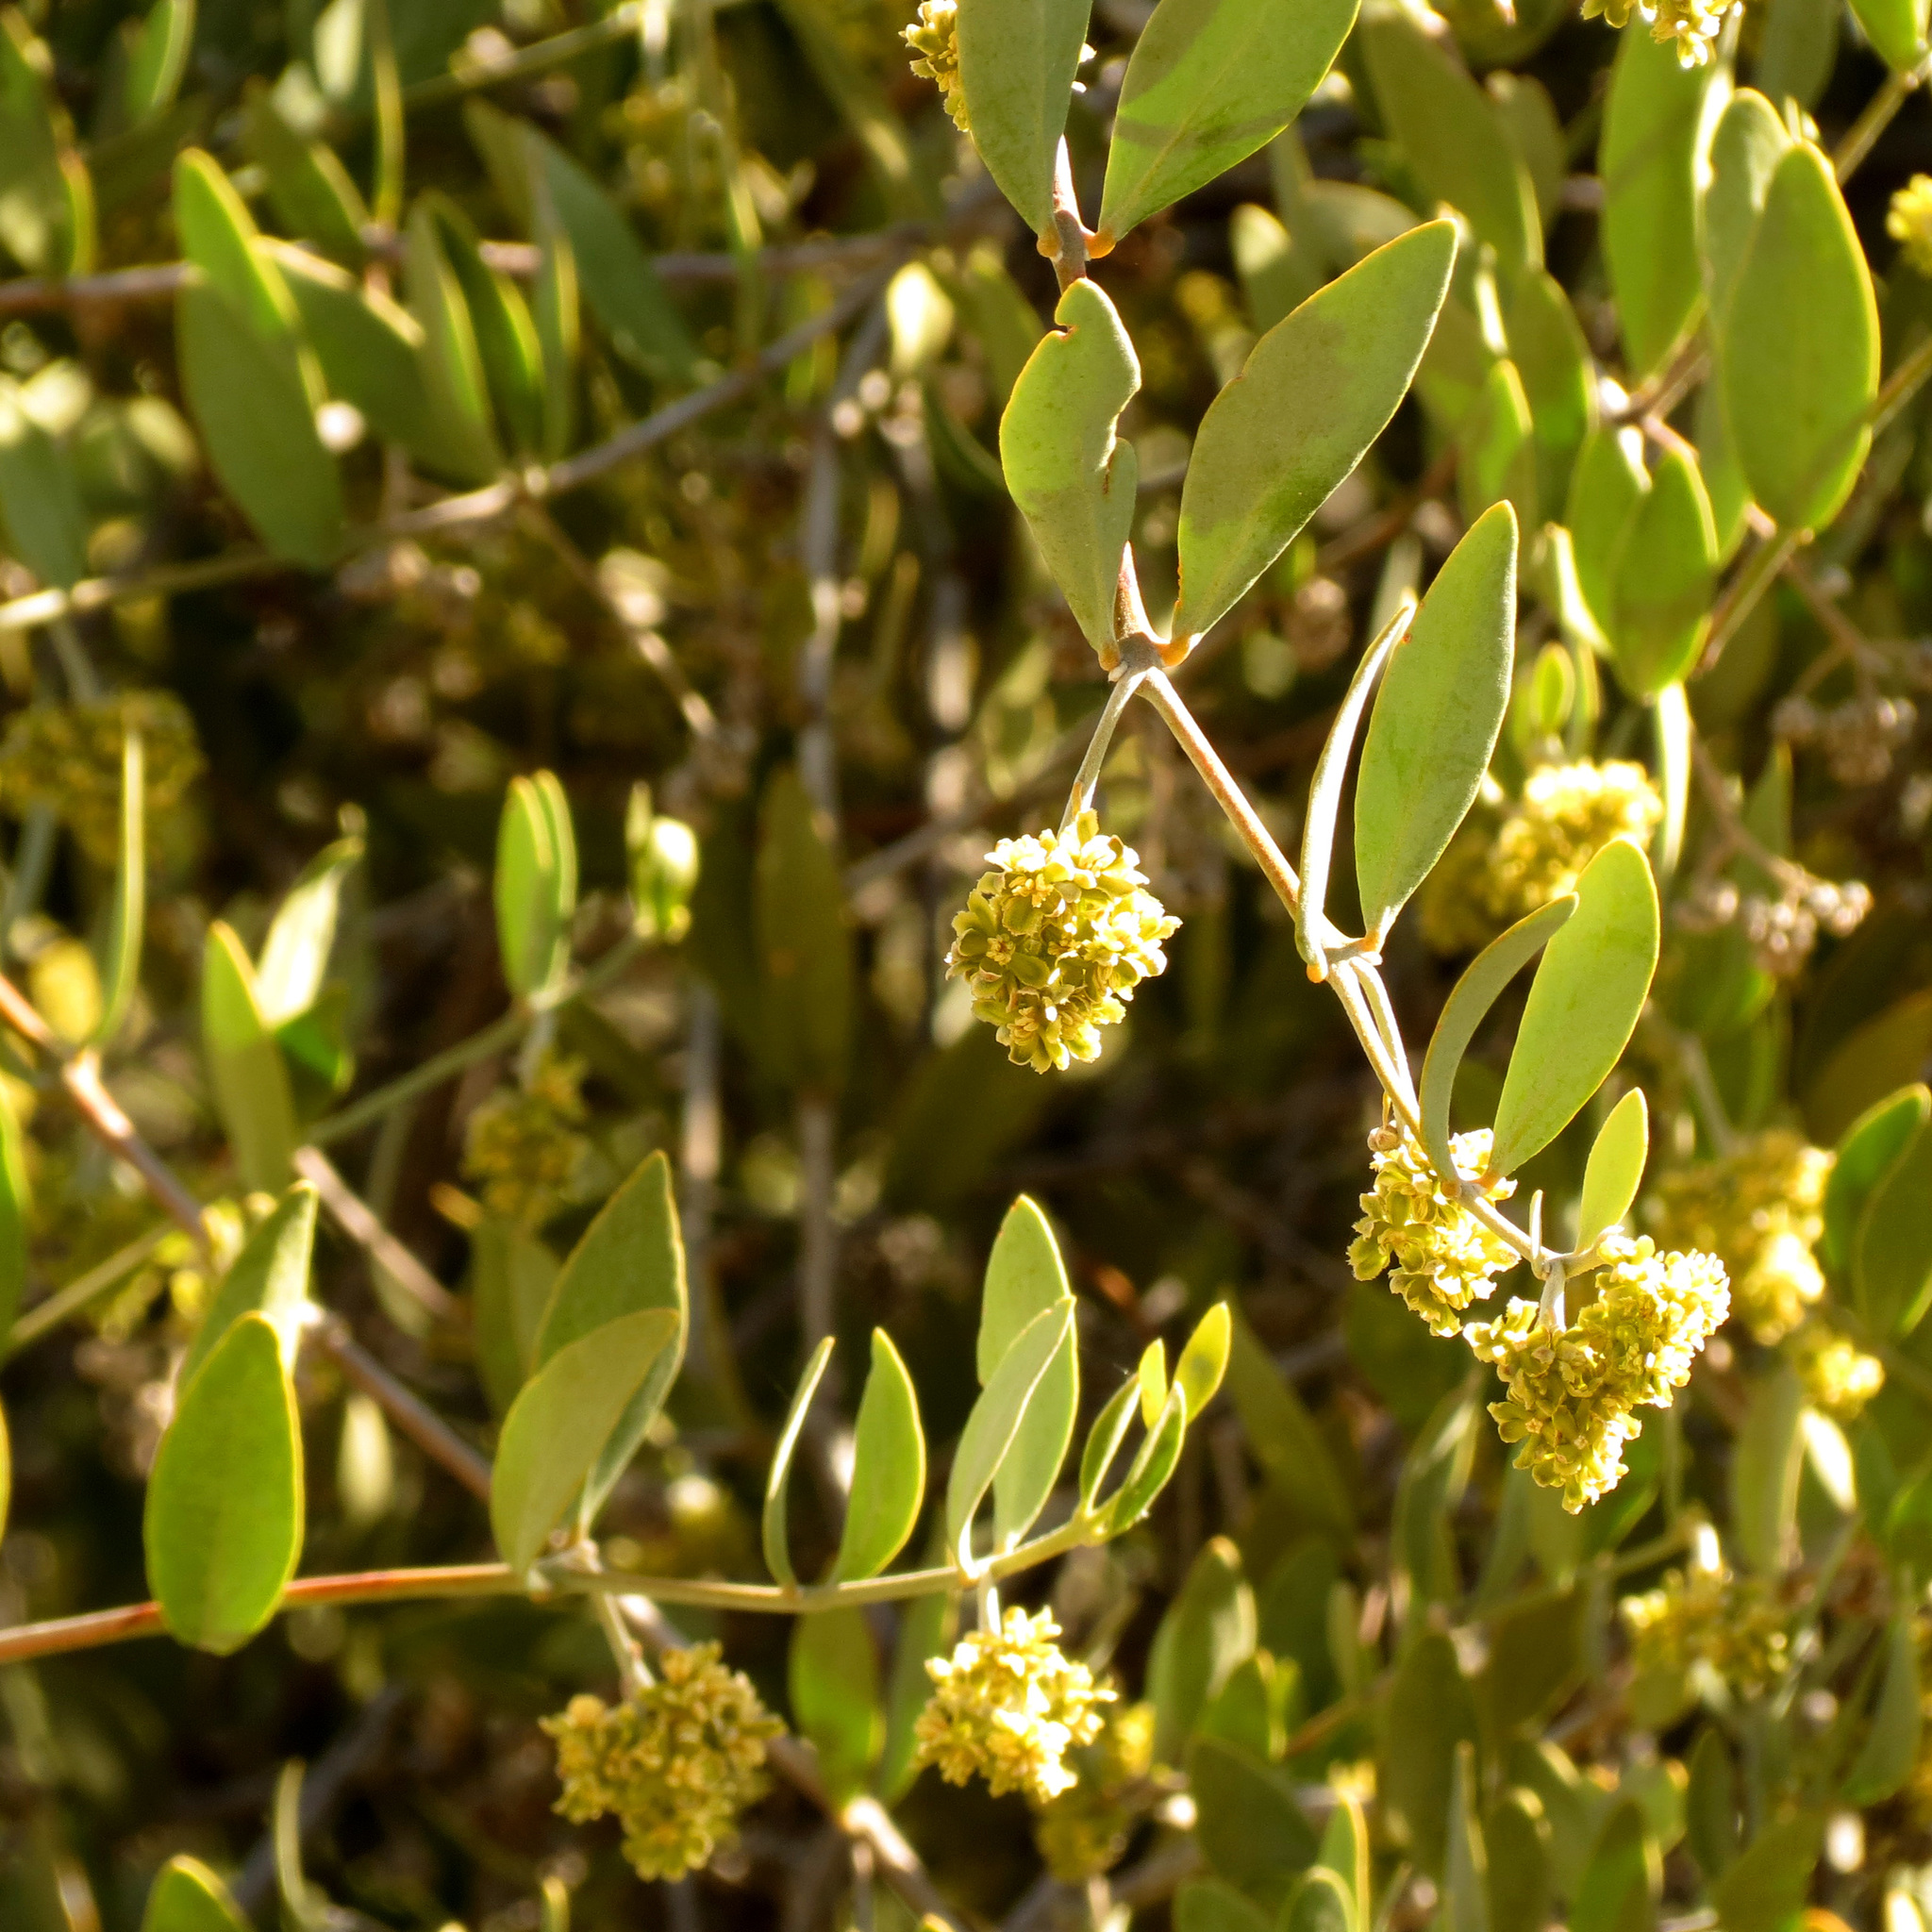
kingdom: Plantae
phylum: Tracheophyta
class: Magnoliopsida
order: Caryophyllales
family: Simmondsiaceae
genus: Simmondsia
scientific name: Simmondsia chinensis
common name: Jojoba
